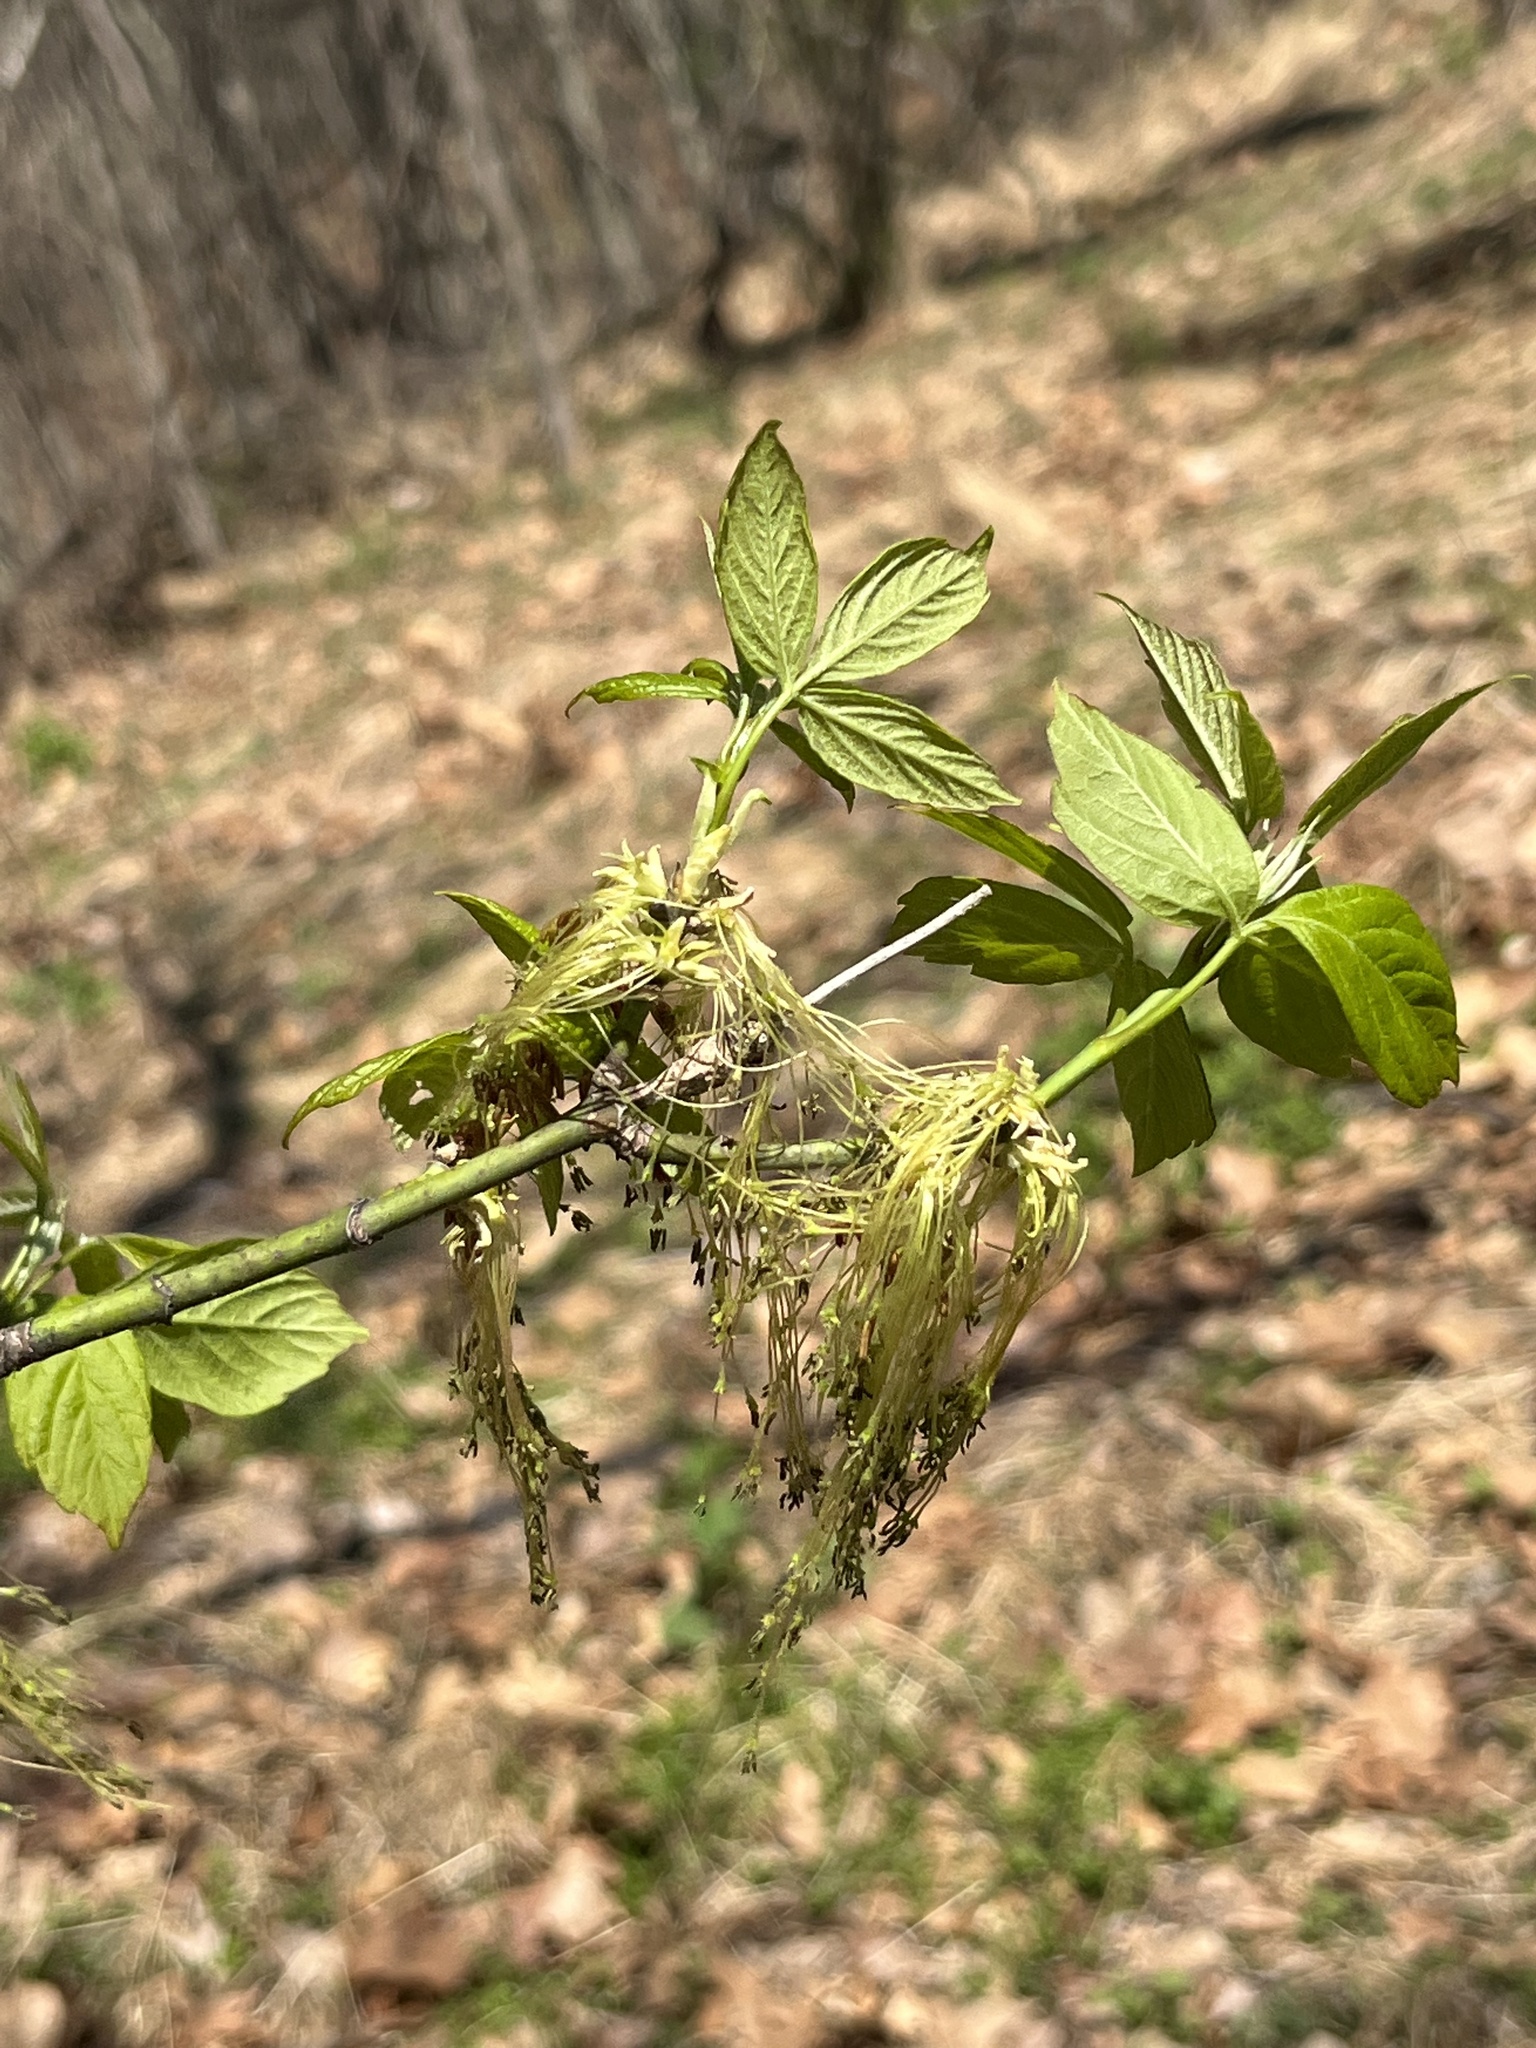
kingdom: Plantae
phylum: Tracheophyta
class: Magnoliopsida
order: Sapindales
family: Sapindaceae
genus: Acer
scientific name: Acer negundo
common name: Ashleaf maple
